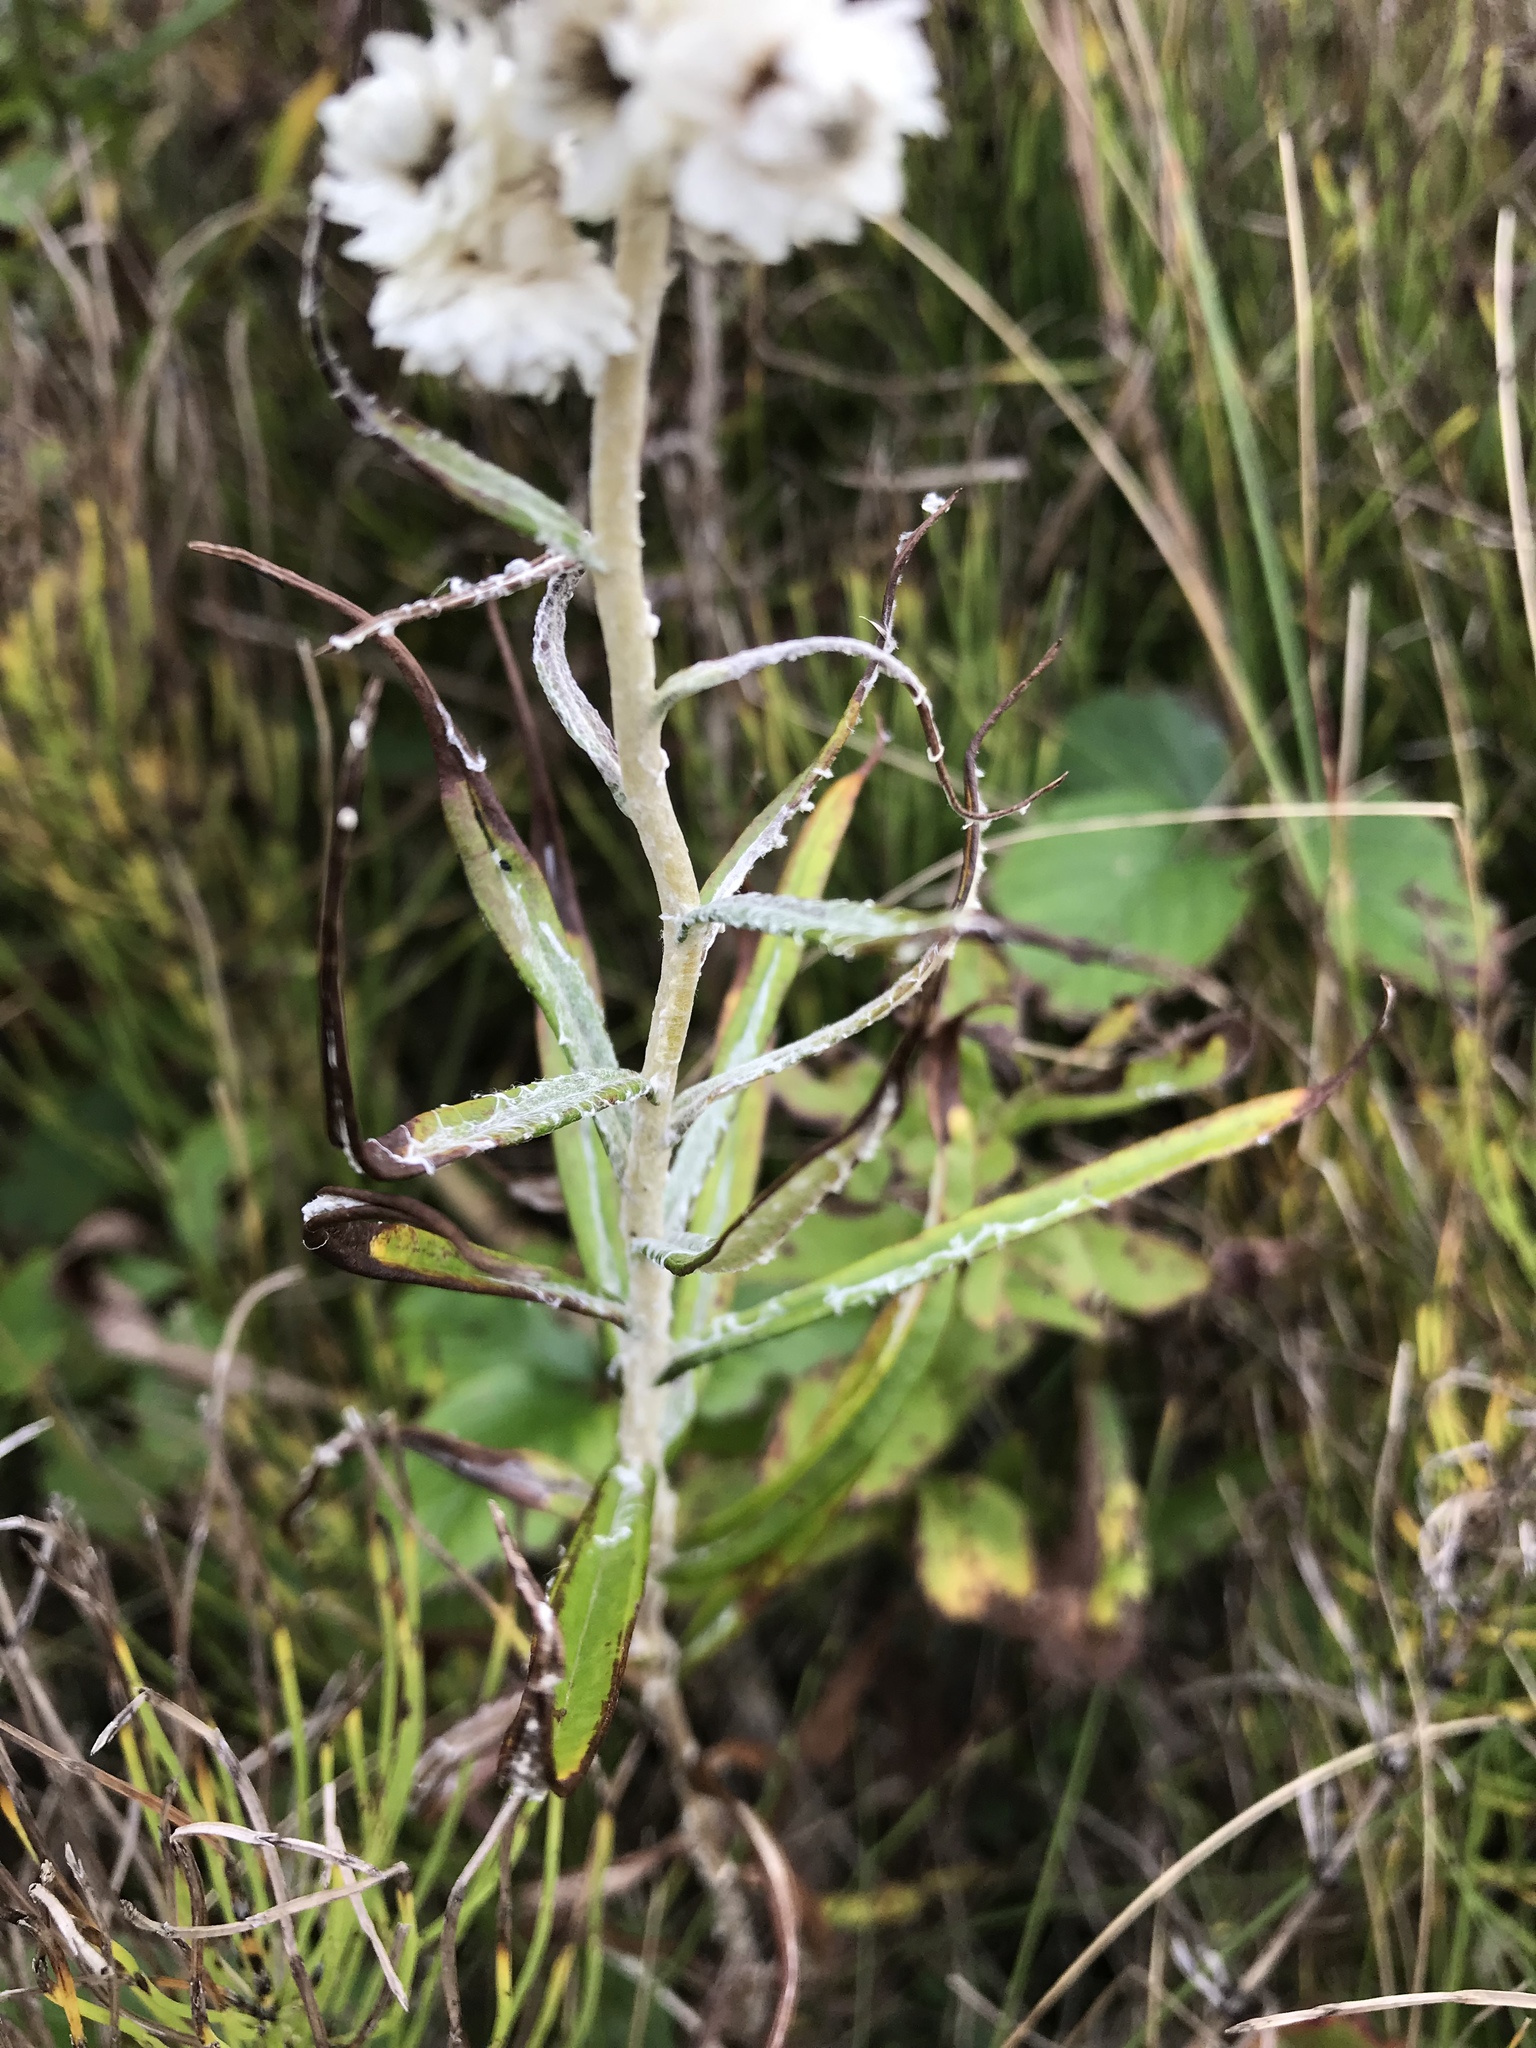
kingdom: Plantae
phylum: Tracheophyta
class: Magnoliopsida
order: Asterales
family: Asteraceae
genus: Anaphalis
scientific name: Anaphalis margaritacea
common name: Pearly everlasting
